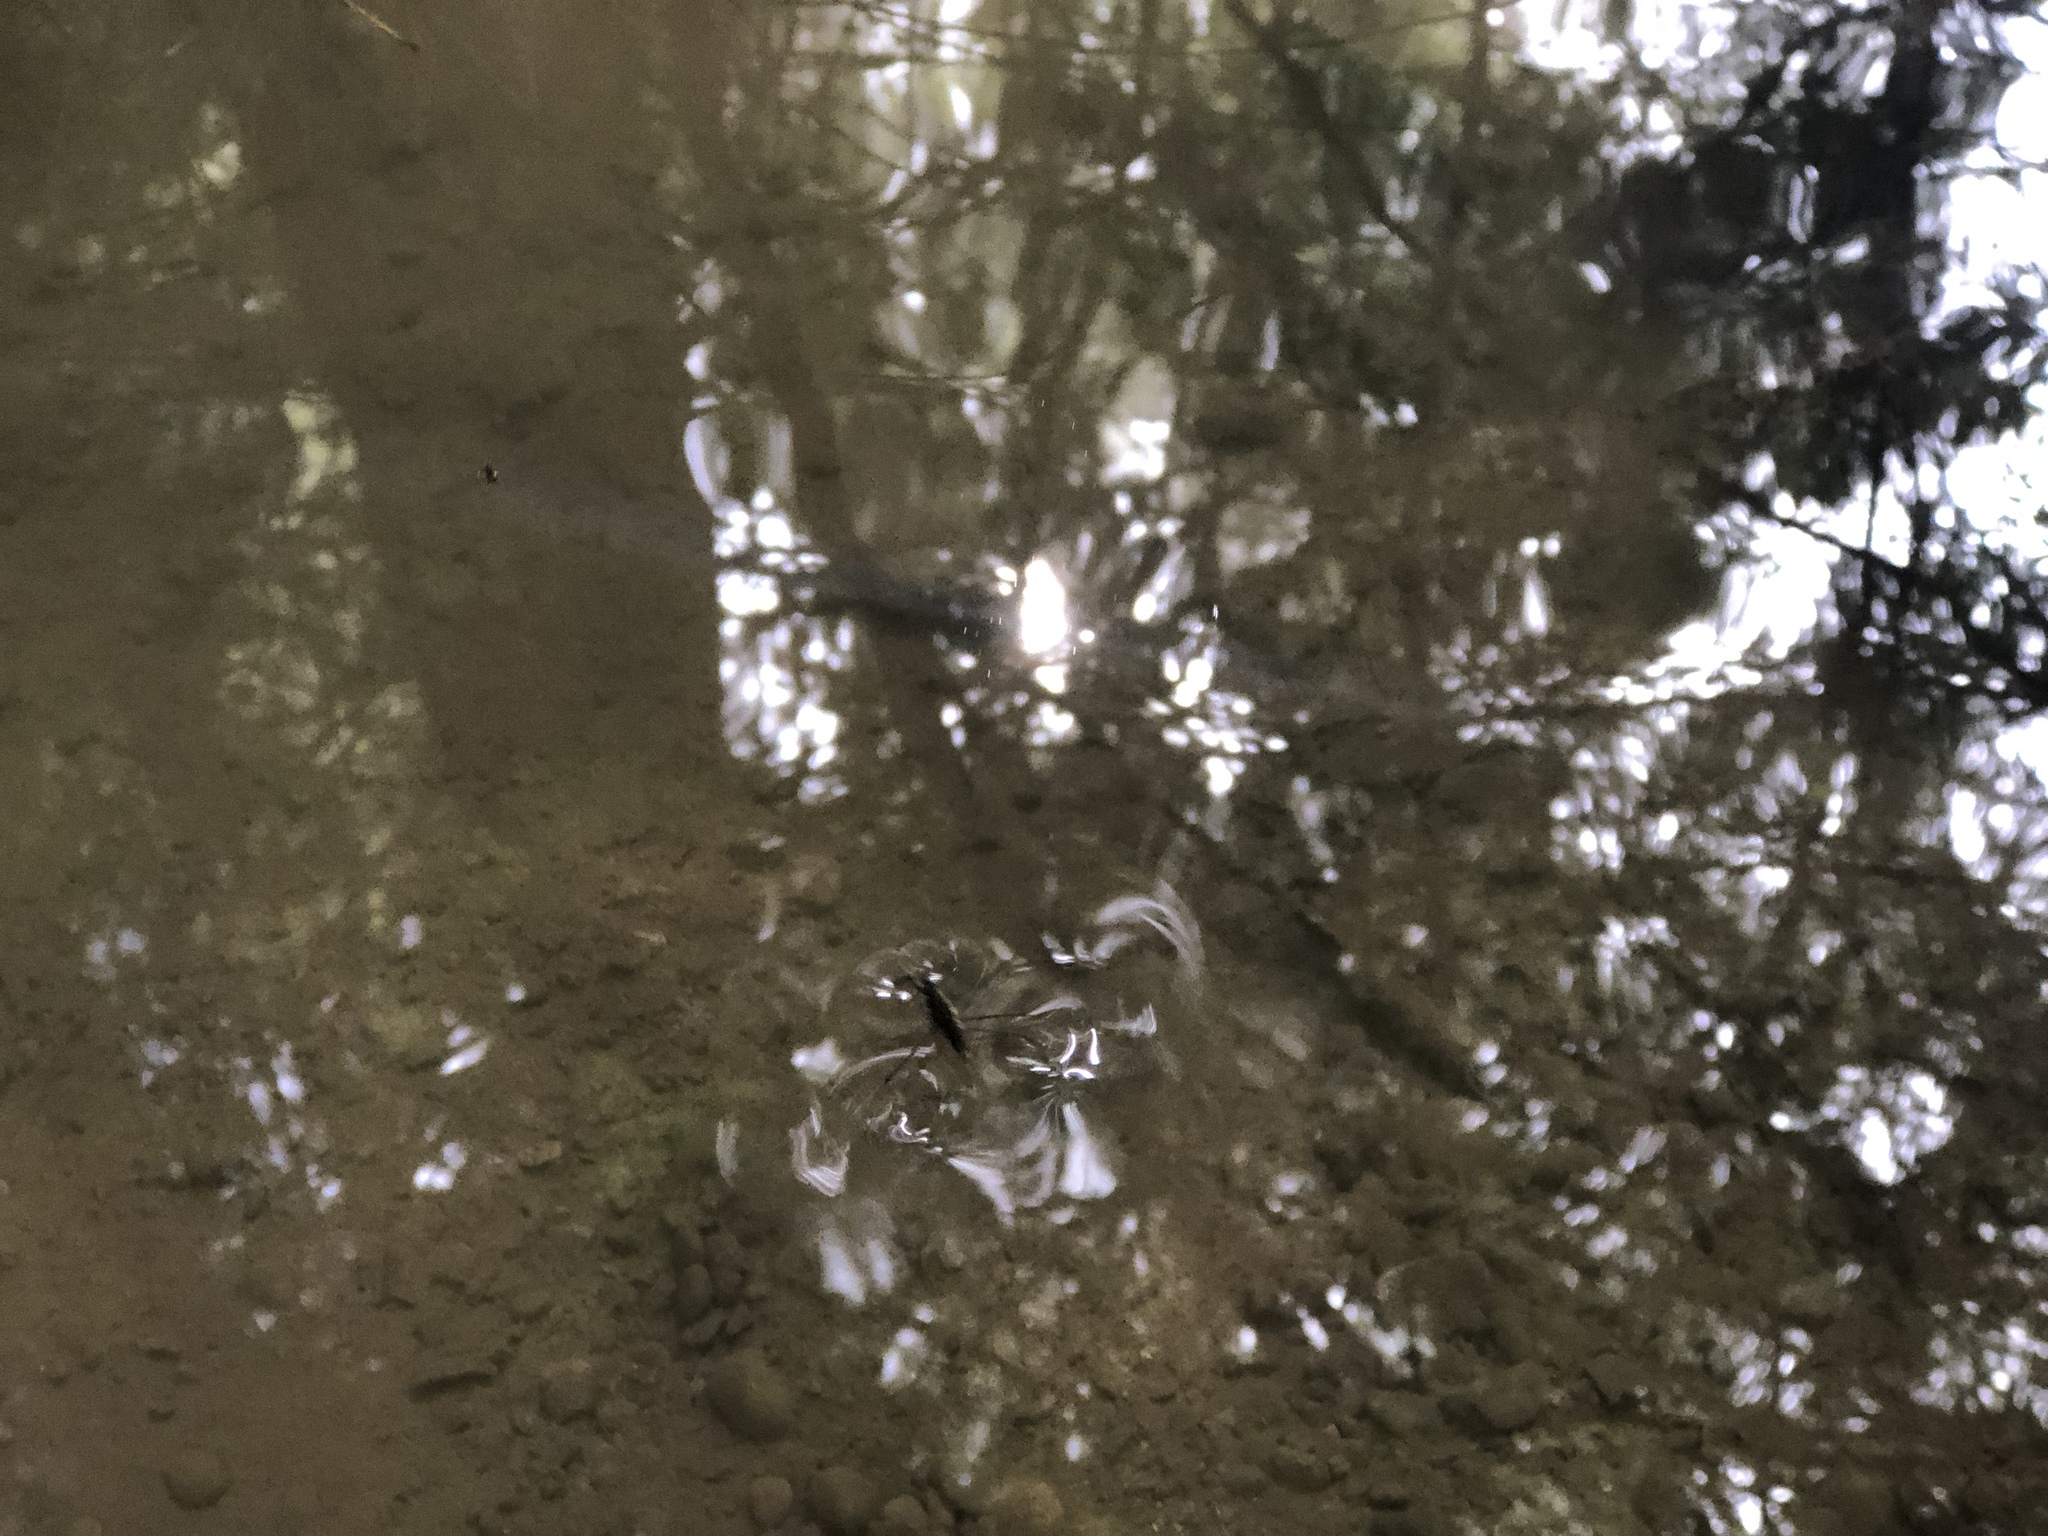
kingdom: Animalia
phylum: Arthropoda
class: Insecta
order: Hemiptera
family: Gerridae
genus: Aquarius
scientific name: Aquarius remigis
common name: Common water strider
